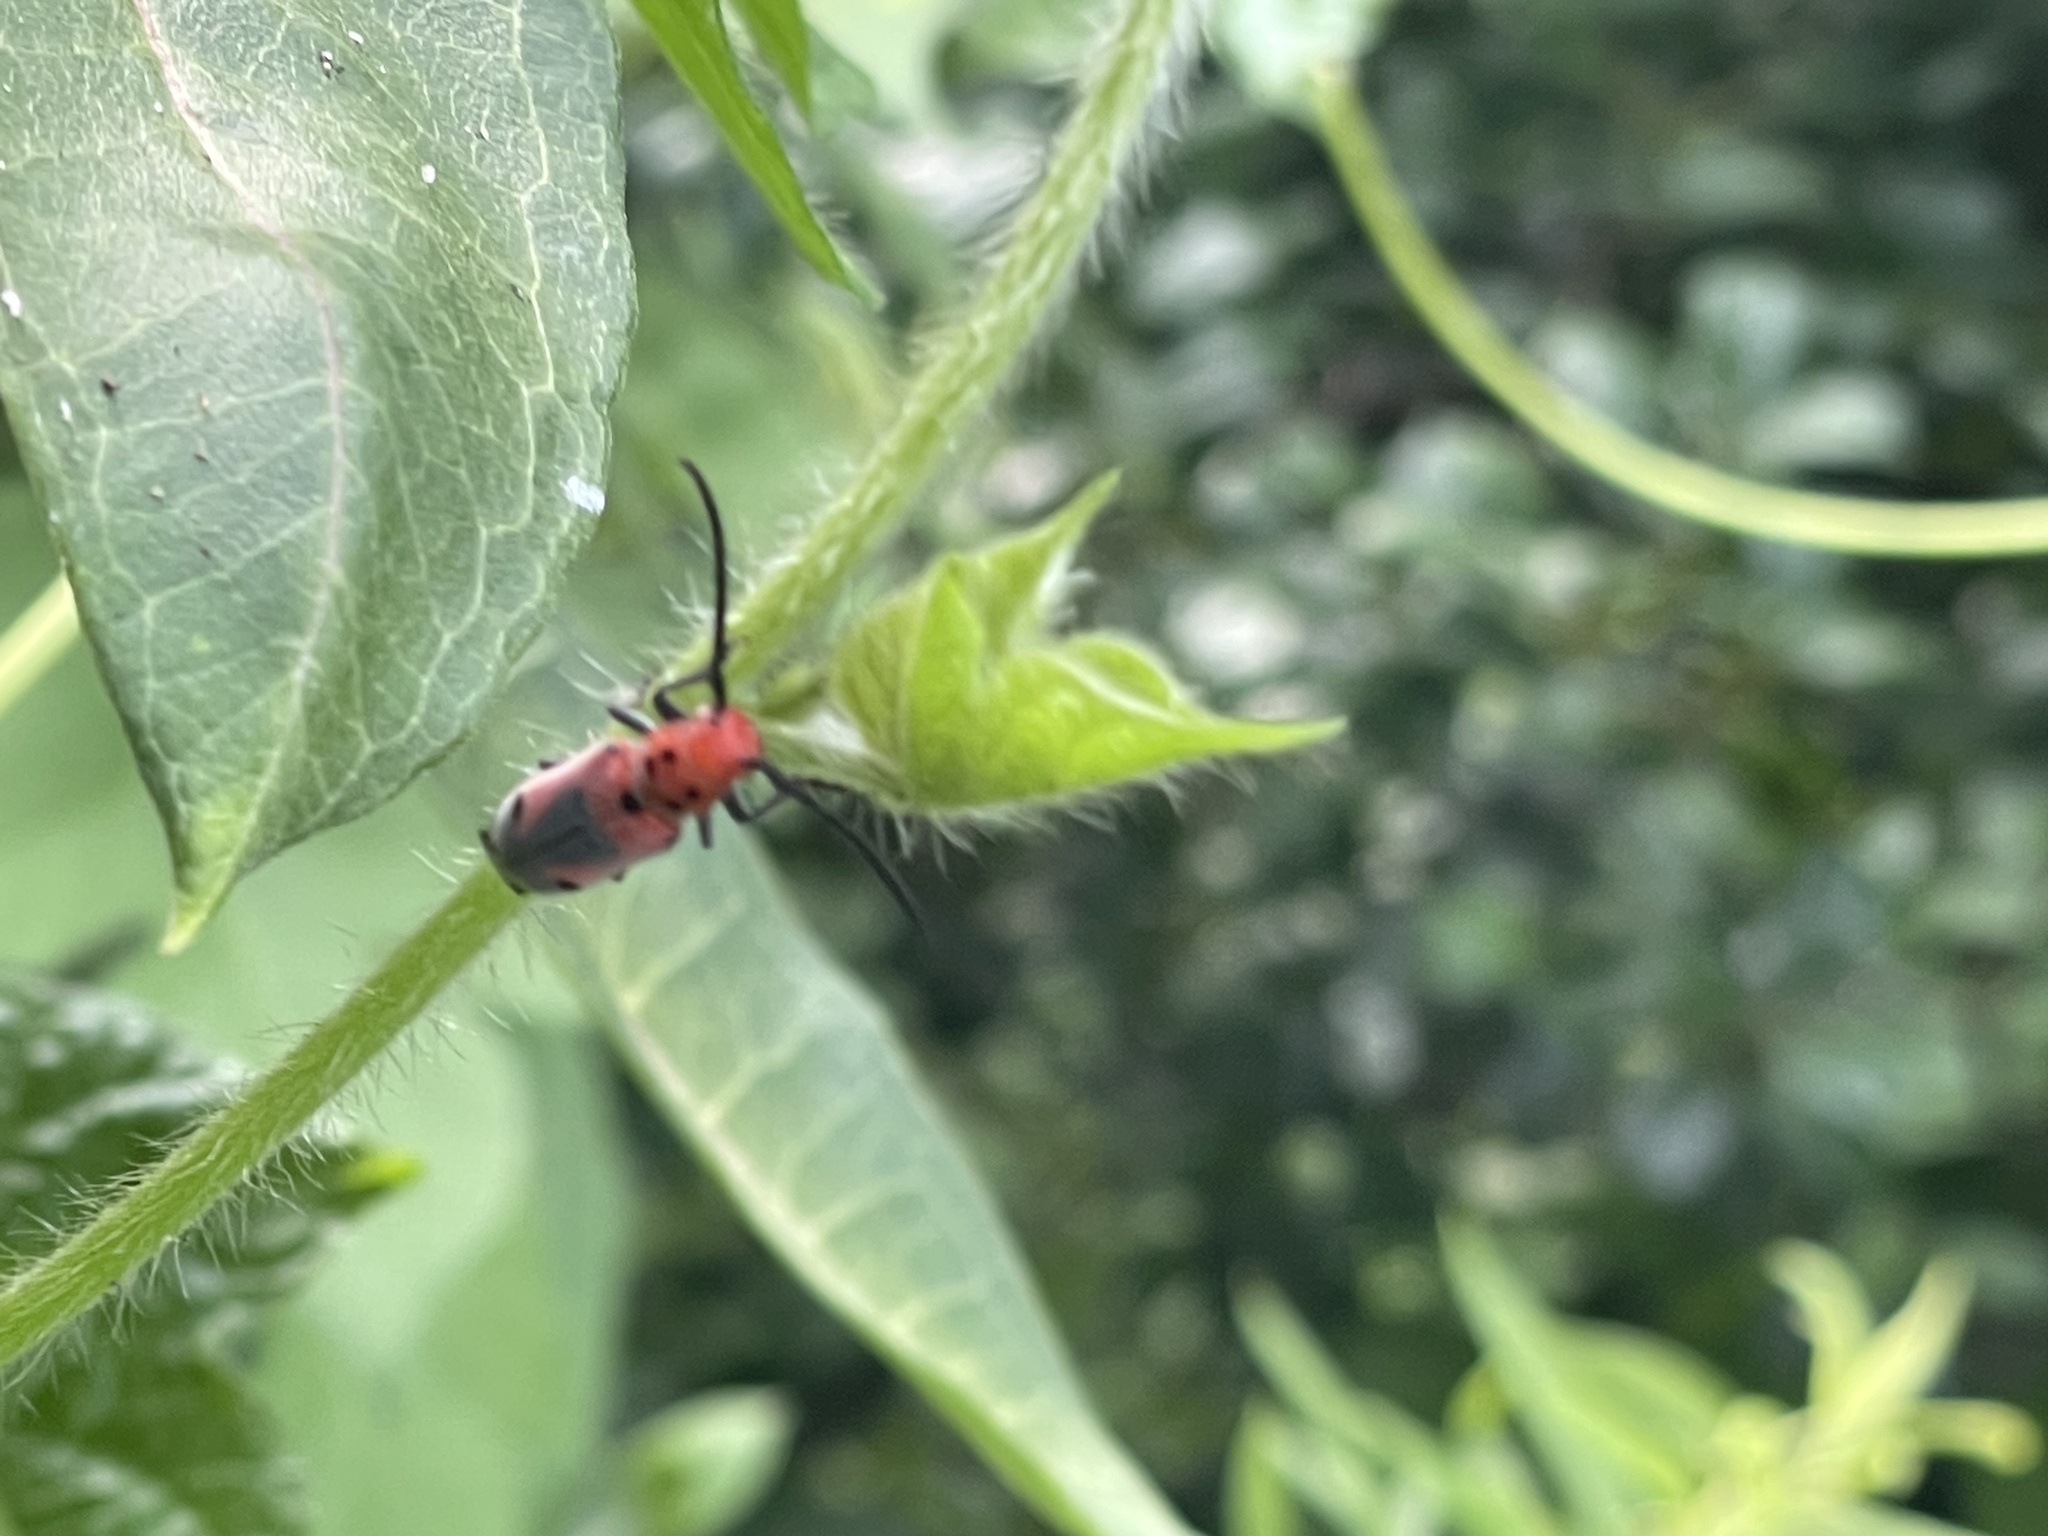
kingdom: Animalia
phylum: Arthropoda
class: Insecta
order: Coleoptera
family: Cerambycidae
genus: Tetraopes
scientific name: Tetraopes melanurus
